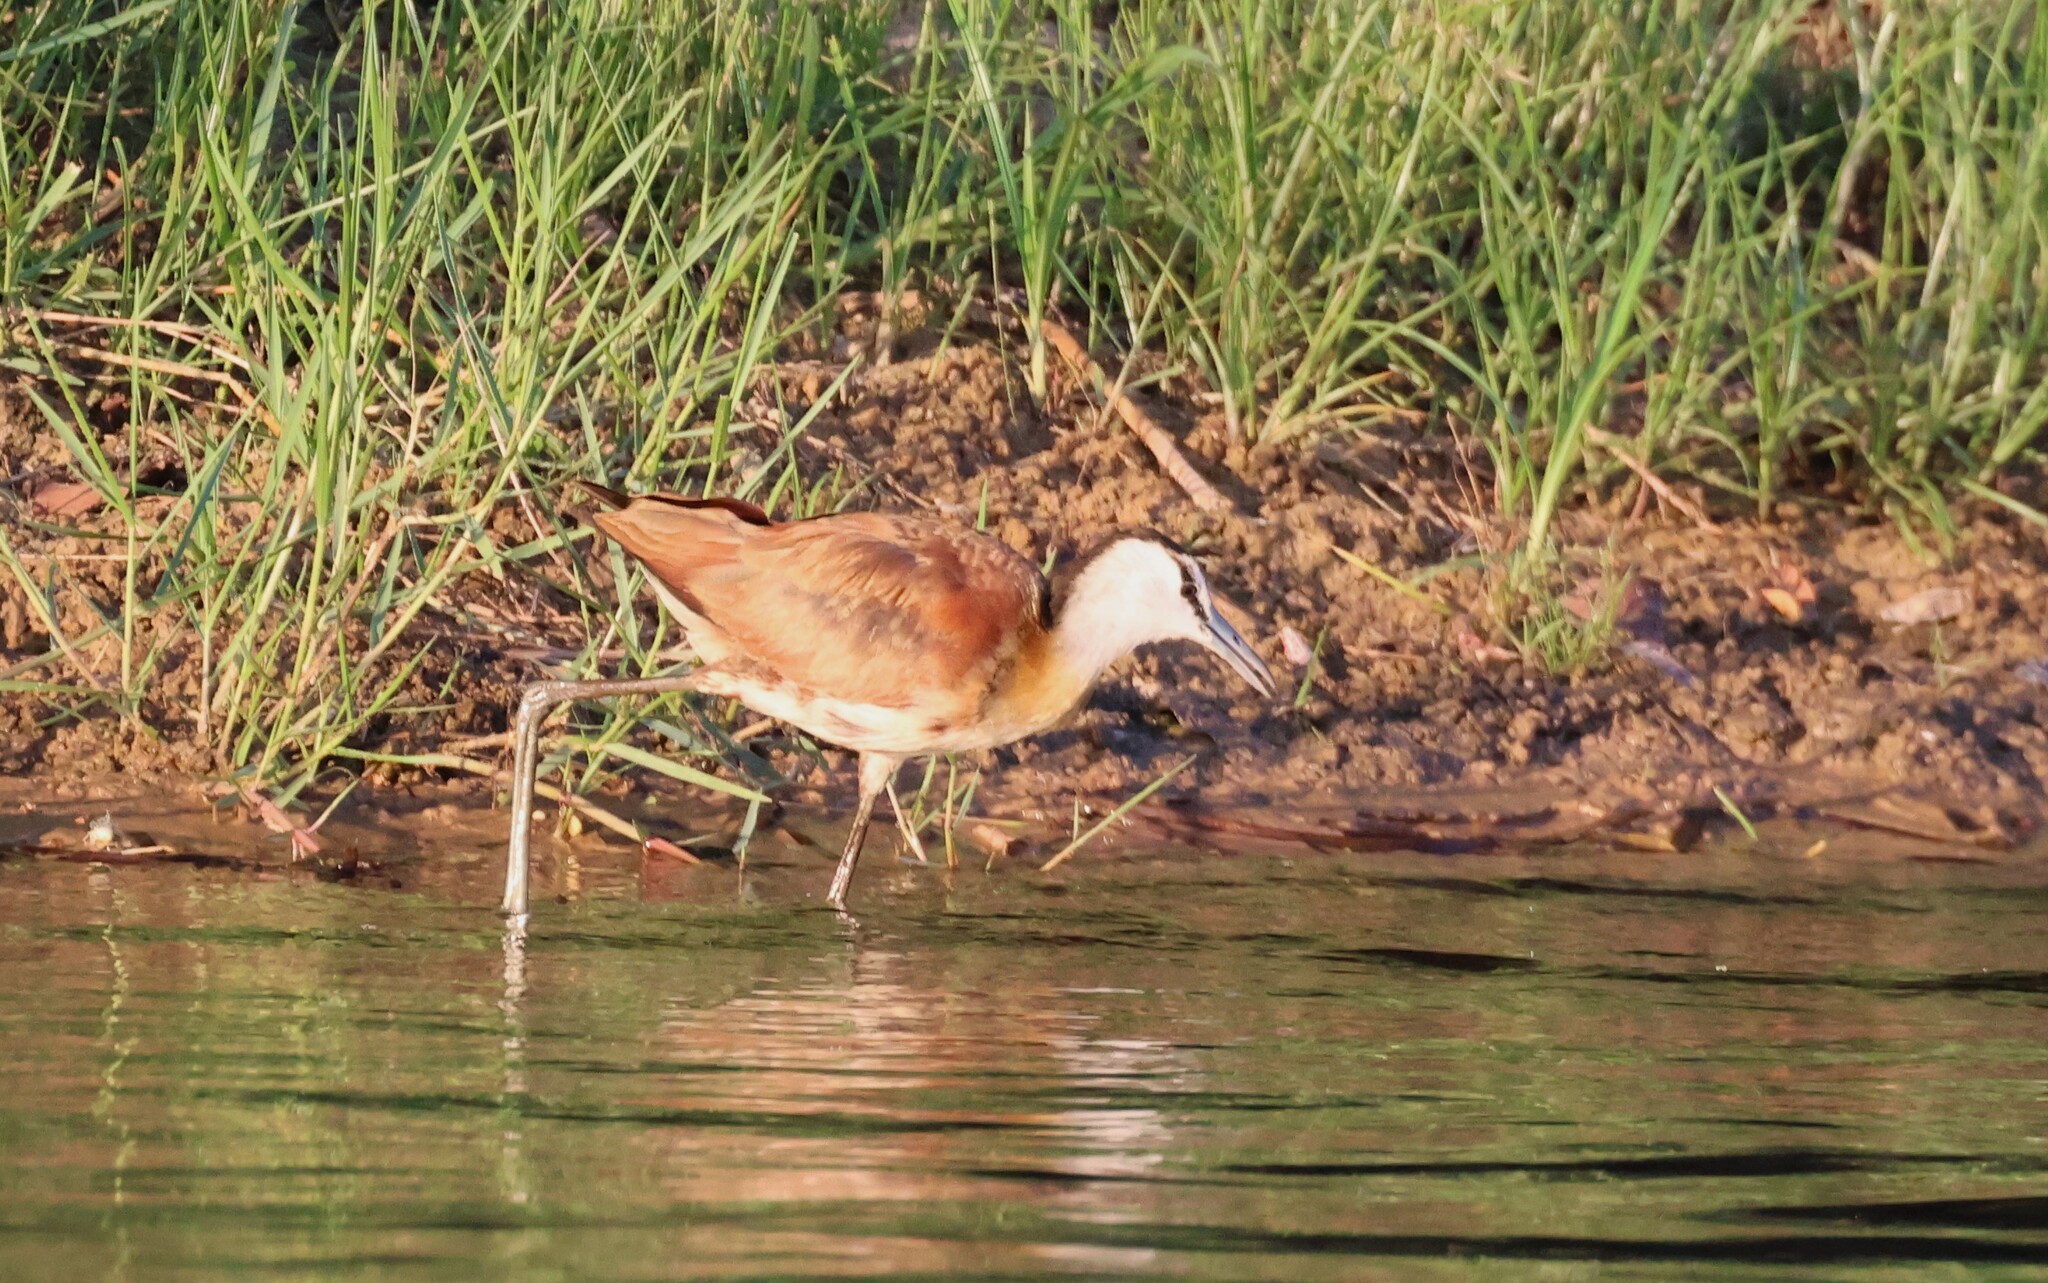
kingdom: Animalia
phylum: Chordata
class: Aves
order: Charadriiformes
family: Jacanidae
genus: Actophilornis
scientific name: Actophilornis africanus
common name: African jacana
